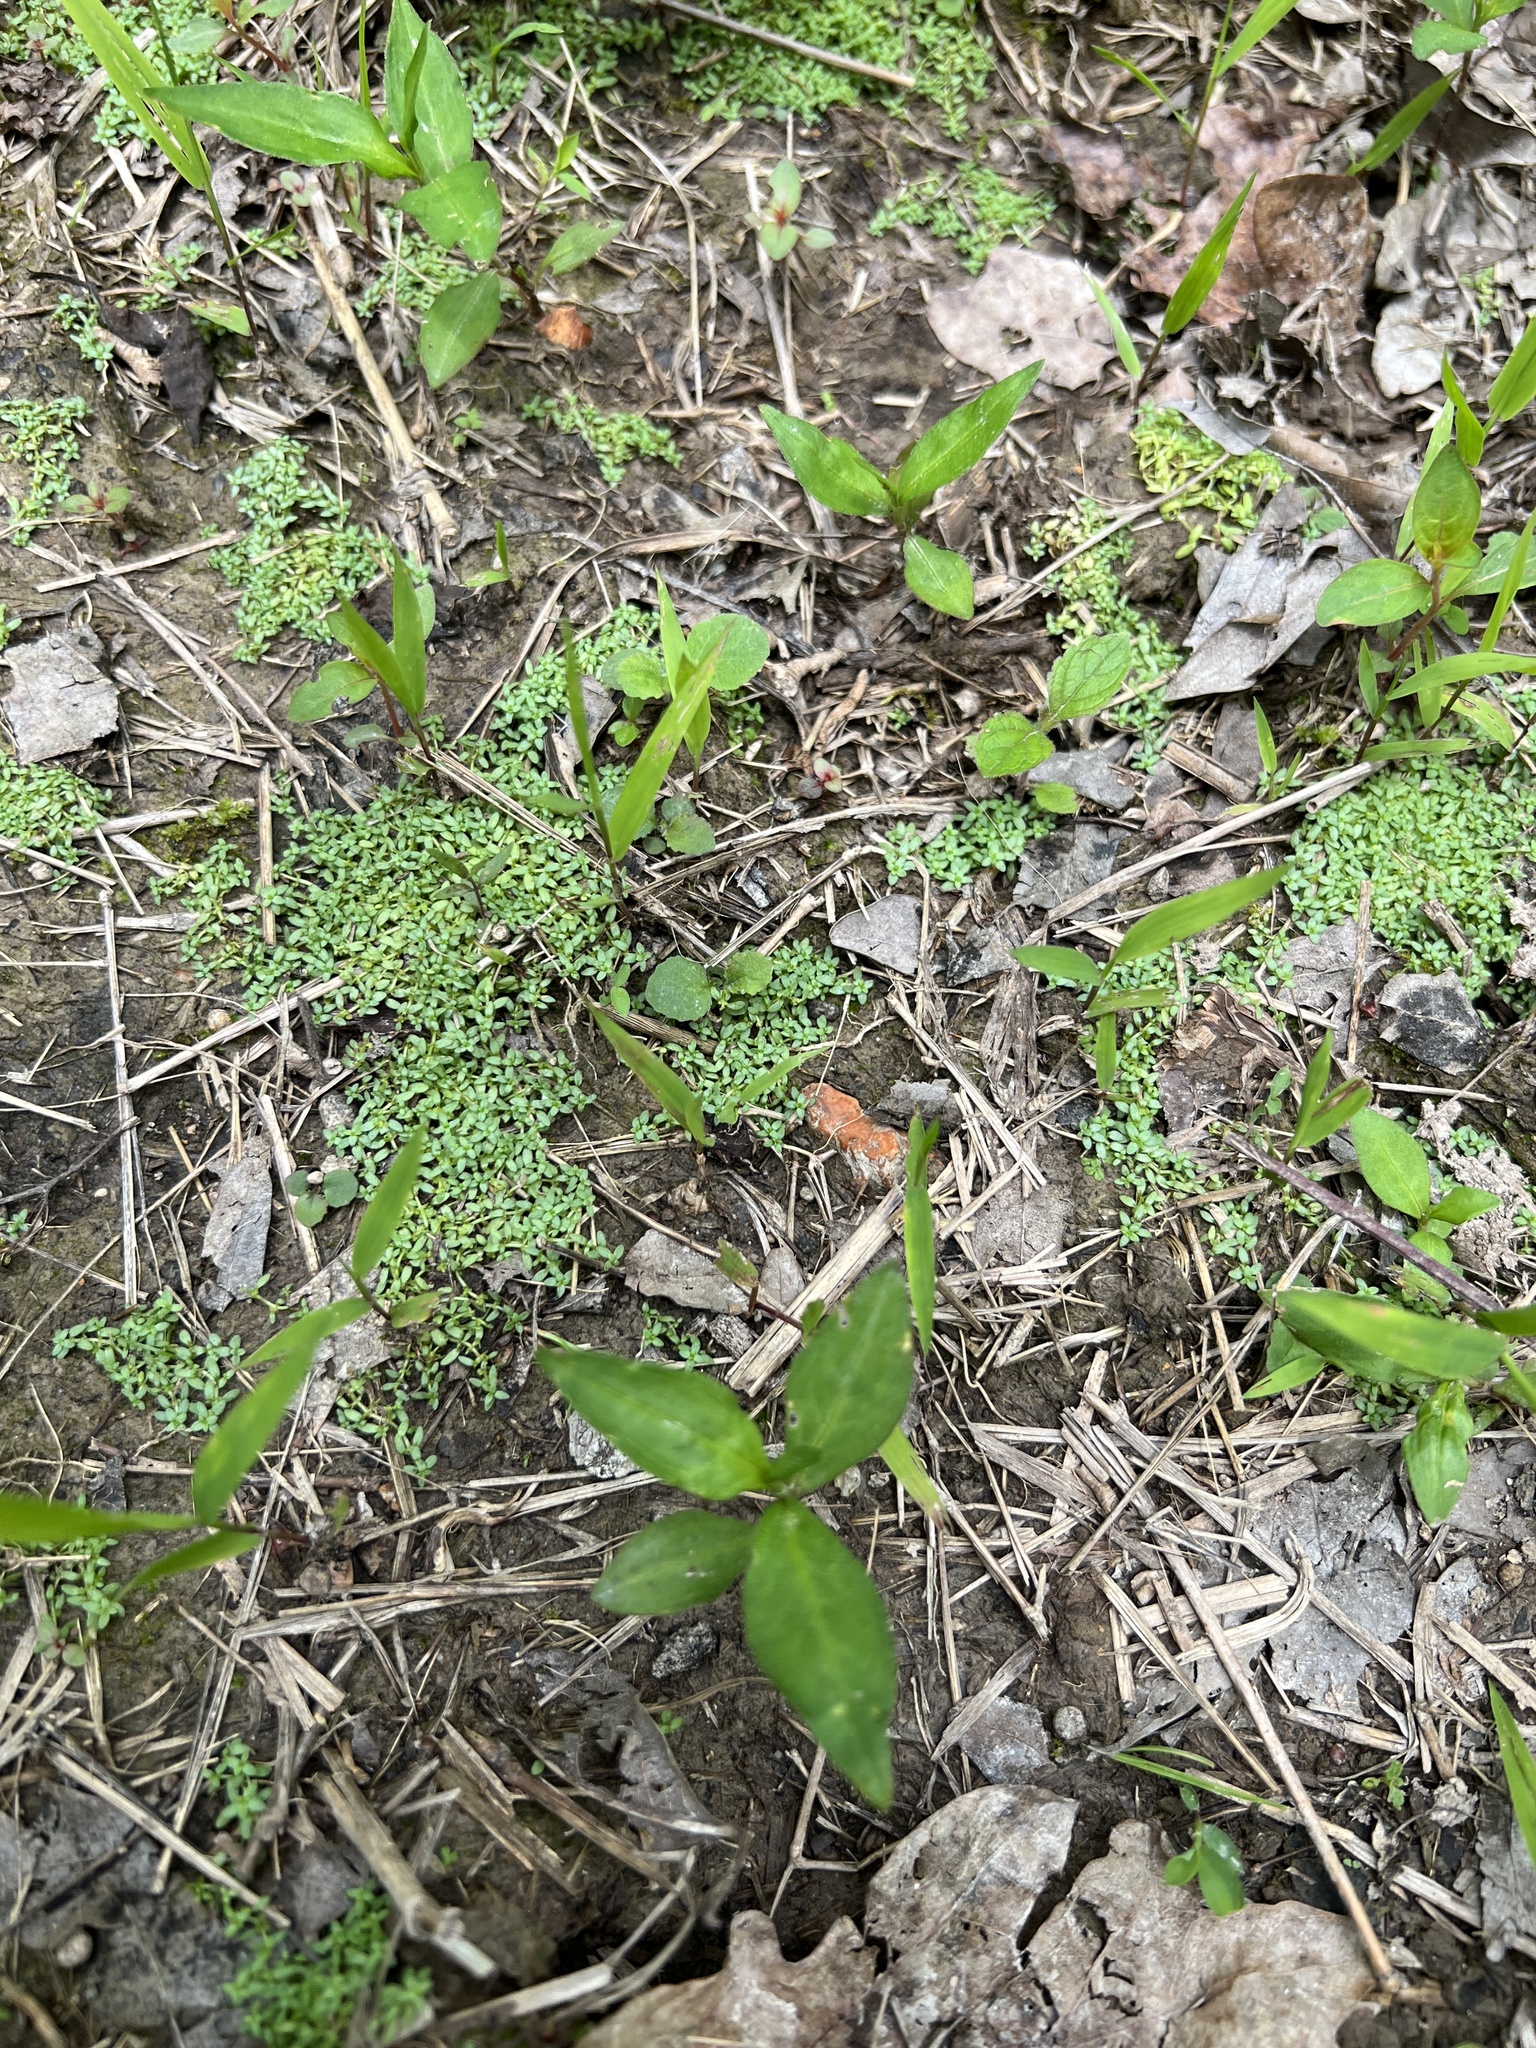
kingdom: Plantae
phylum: Tracheophyta
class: Magnoliopsida
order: Lamiales
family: Plantaginaceae
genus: Callitriche
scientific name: Callitriche terrestris
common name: Terrestrial water-starwort
